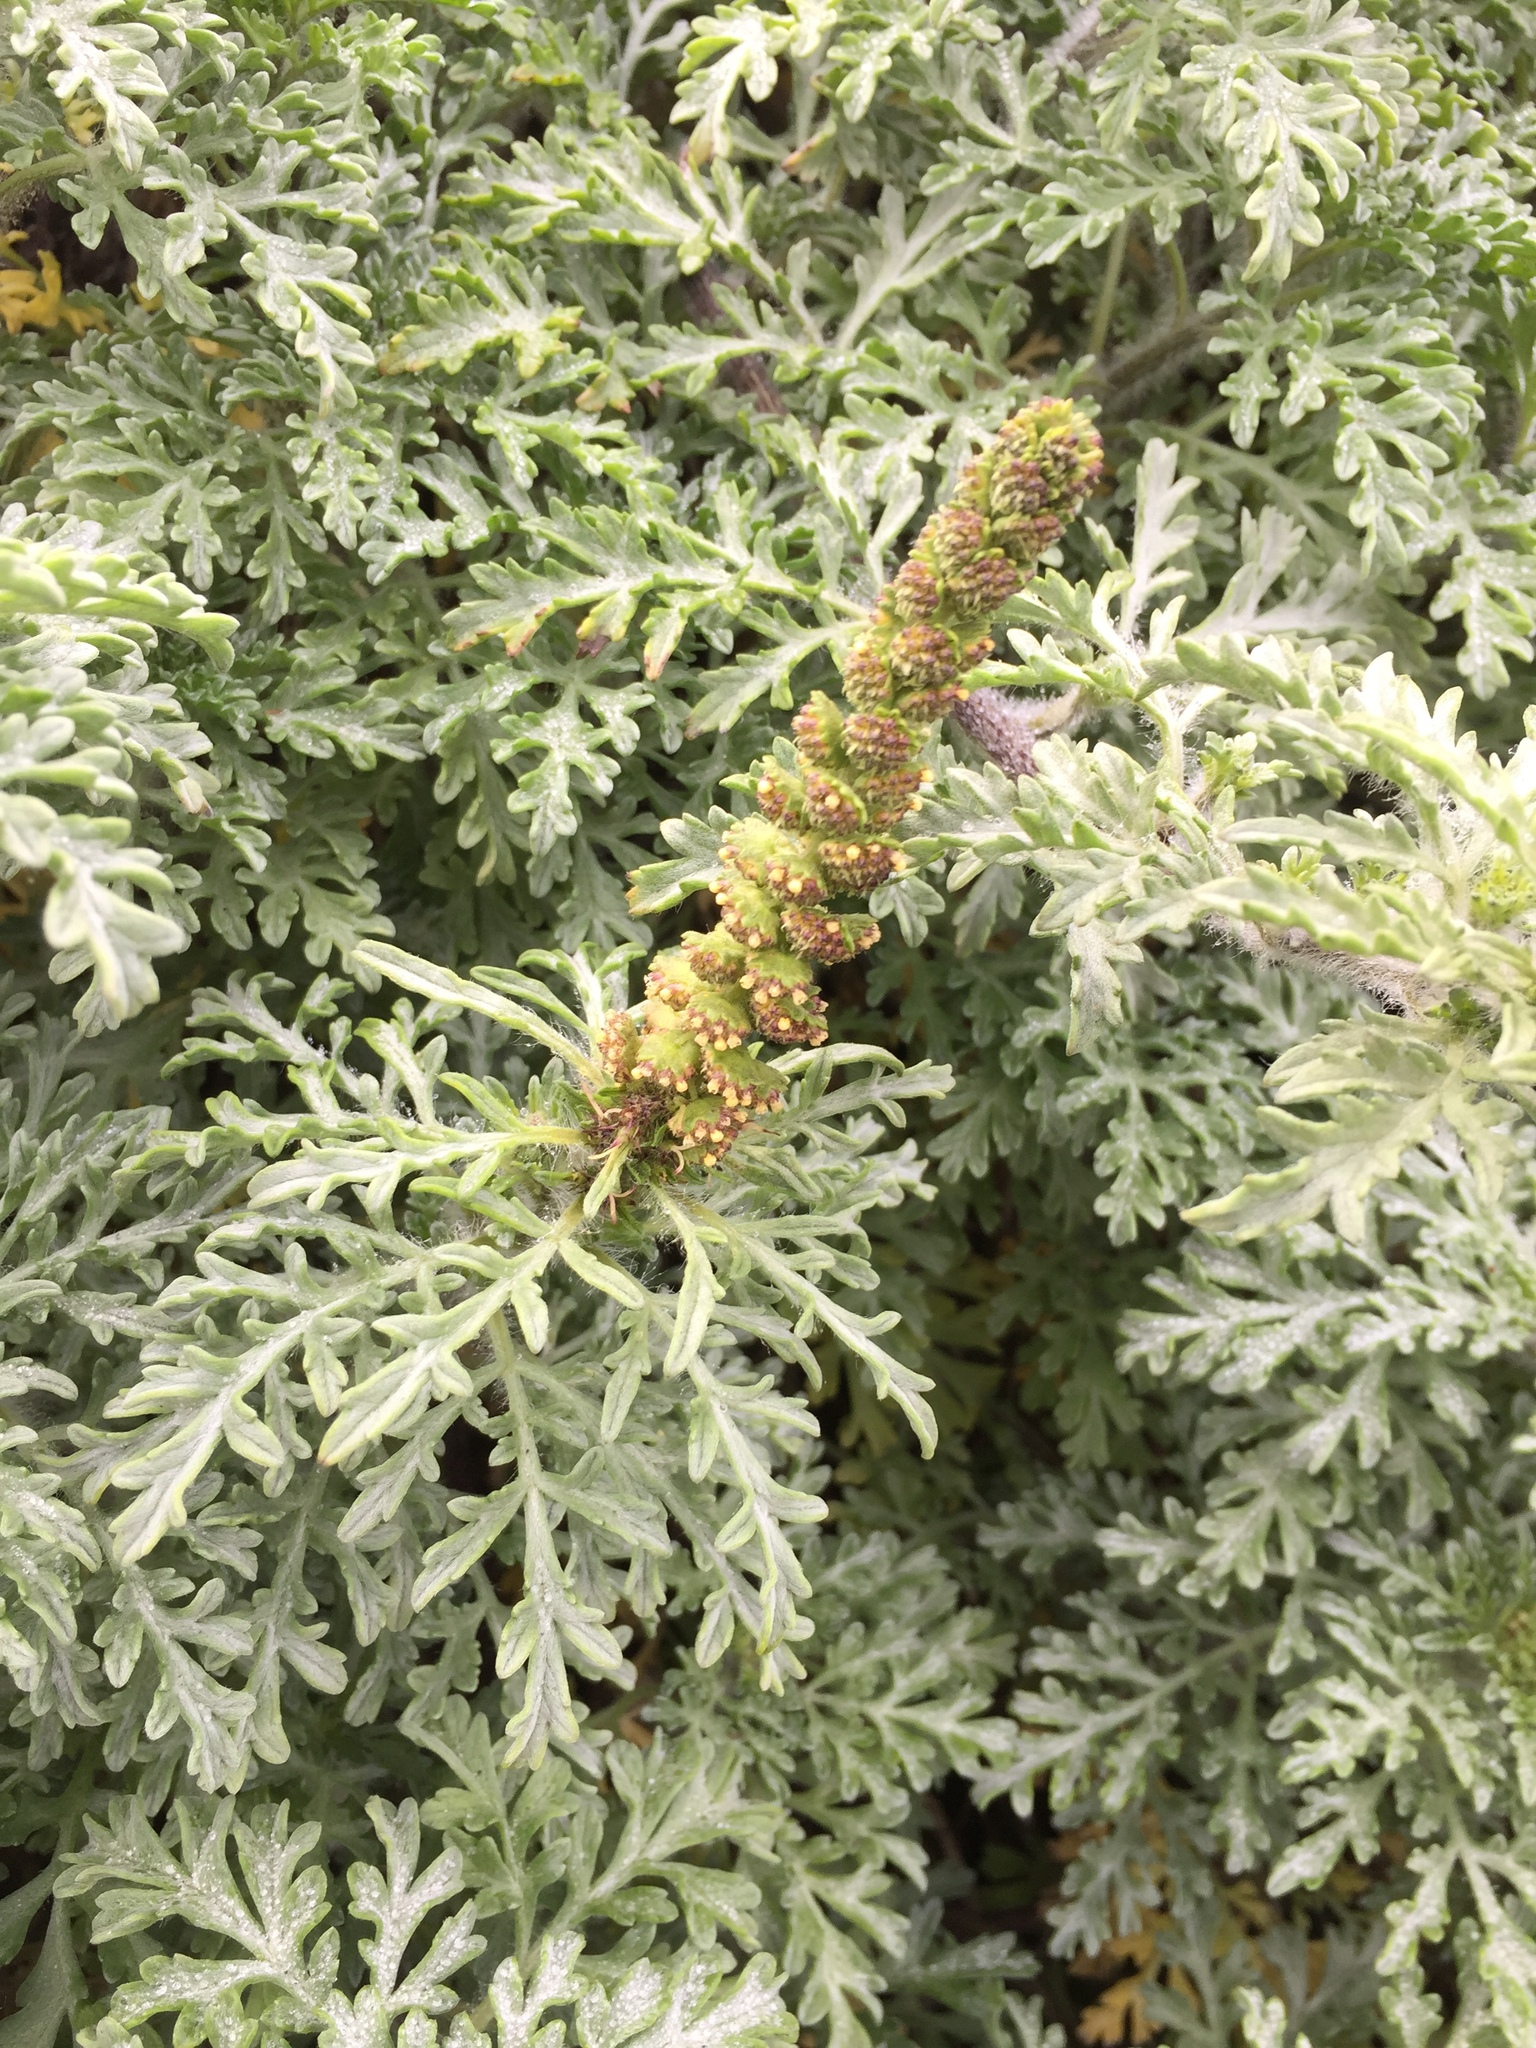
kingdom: Plantae
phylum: Tracheophyta
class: Magnoliopsida
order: Asterales
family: Asteraceae
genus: Ambrosia
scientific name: Ambrosia chamissonis
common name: Beachbur
